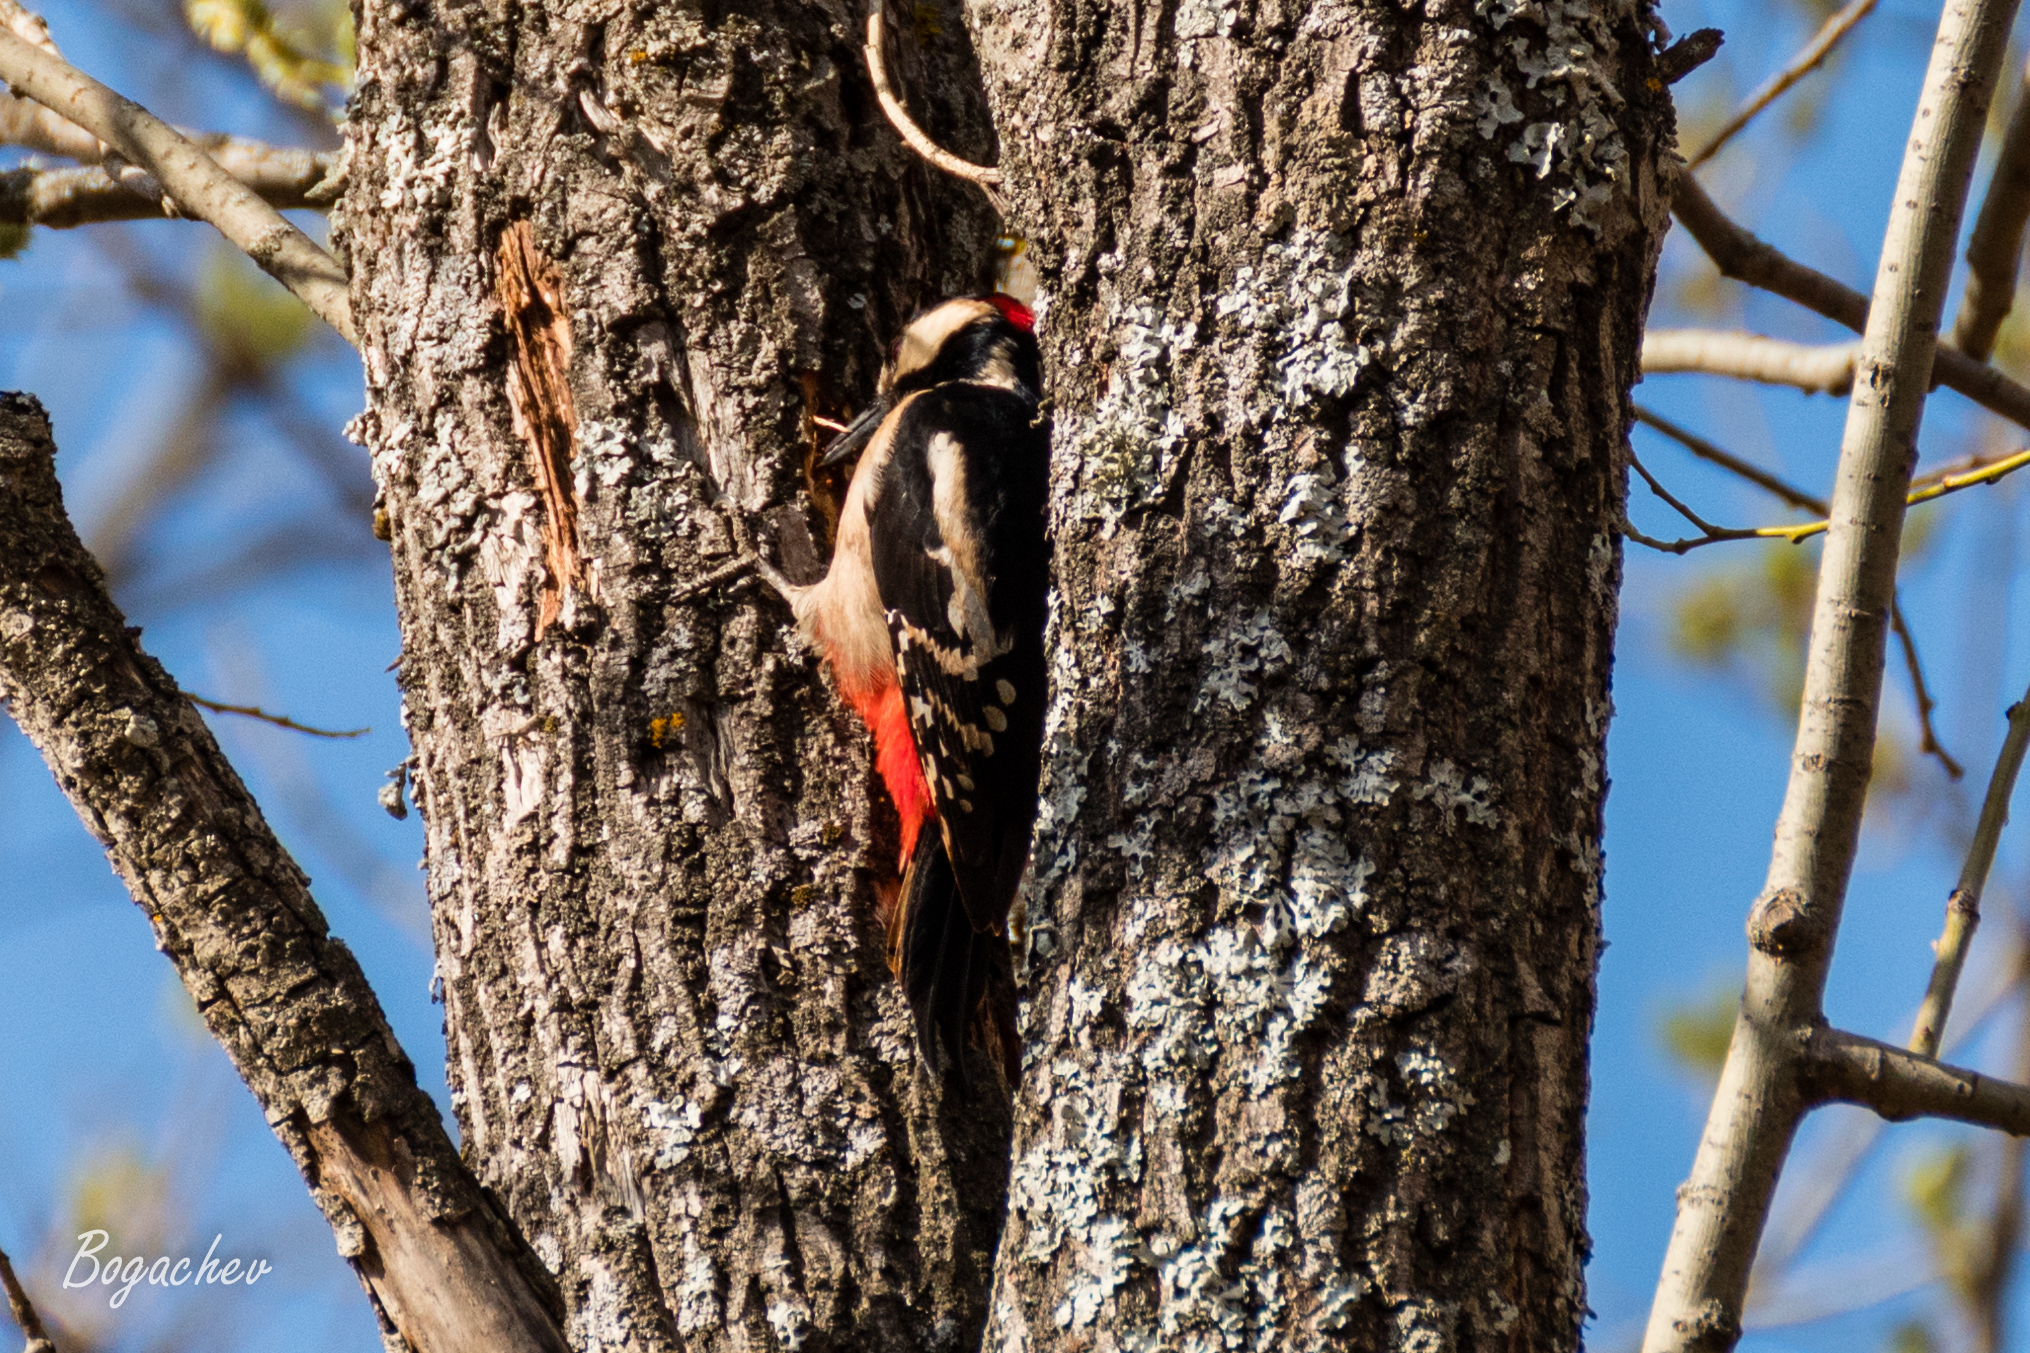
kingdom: Animalia
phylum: Chordata
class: Aves
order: Piciformes
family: Picidae
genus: Dendrocopos
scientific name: Dendrocopos major
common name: Great spotted woodpecker
